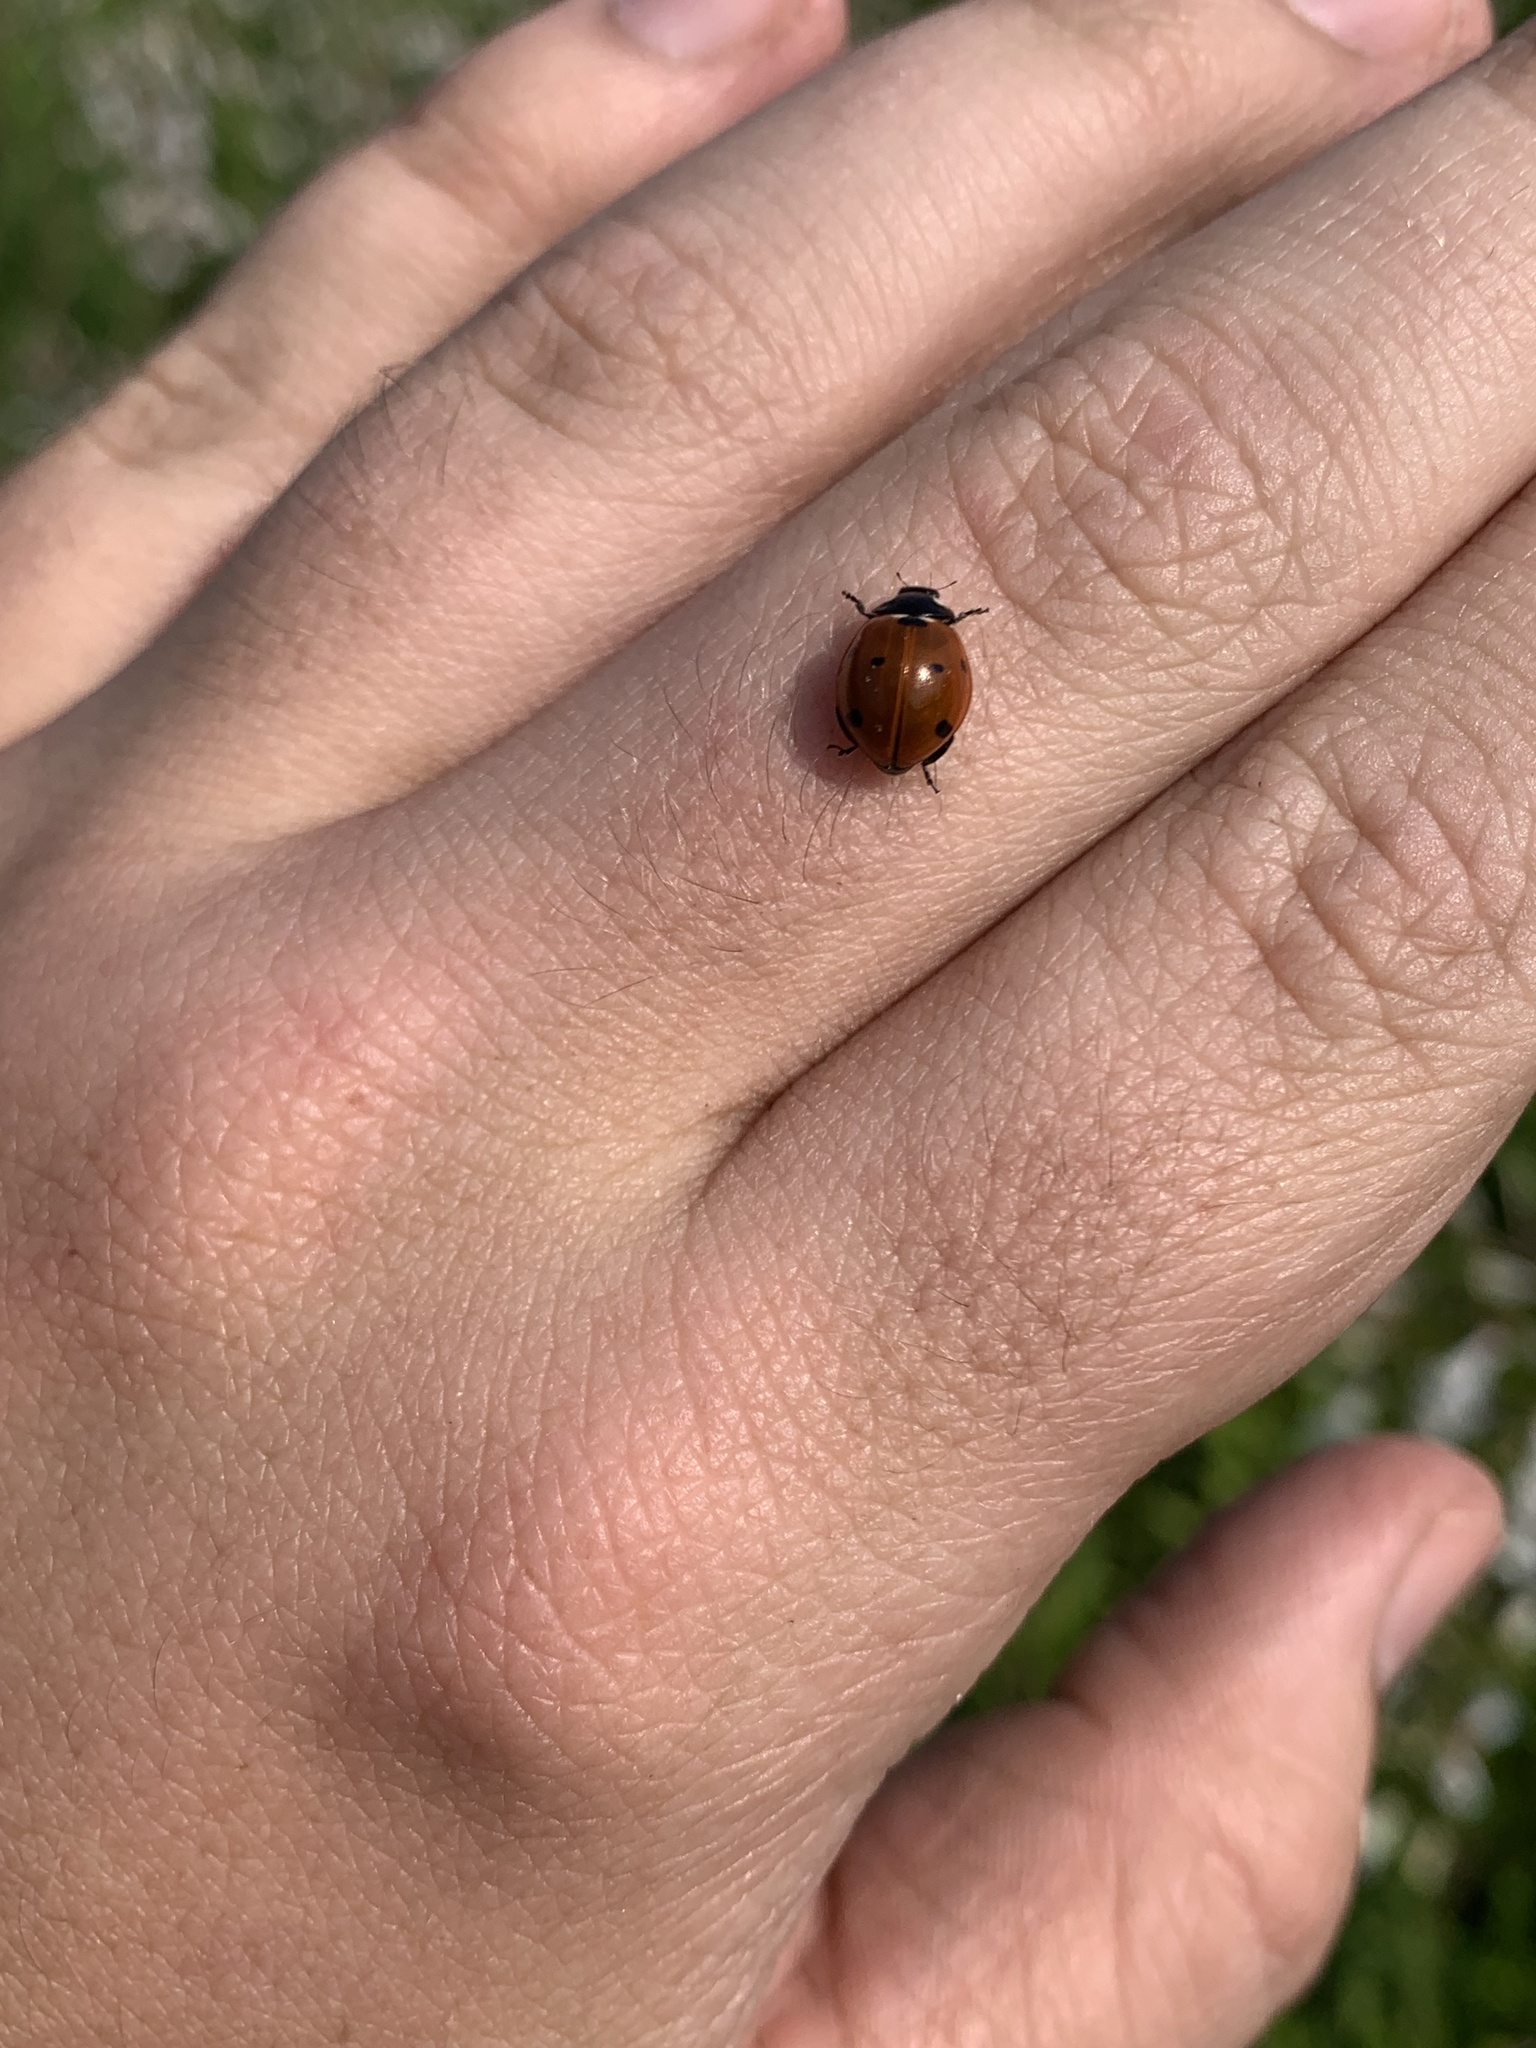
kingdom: Animalia
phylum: Arthropoda
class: Insecta
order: Coleoptera
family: Coccinellidae
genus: Coccinella
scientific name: Coccinella septempunctata
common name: Sevenspotted lady beetle
